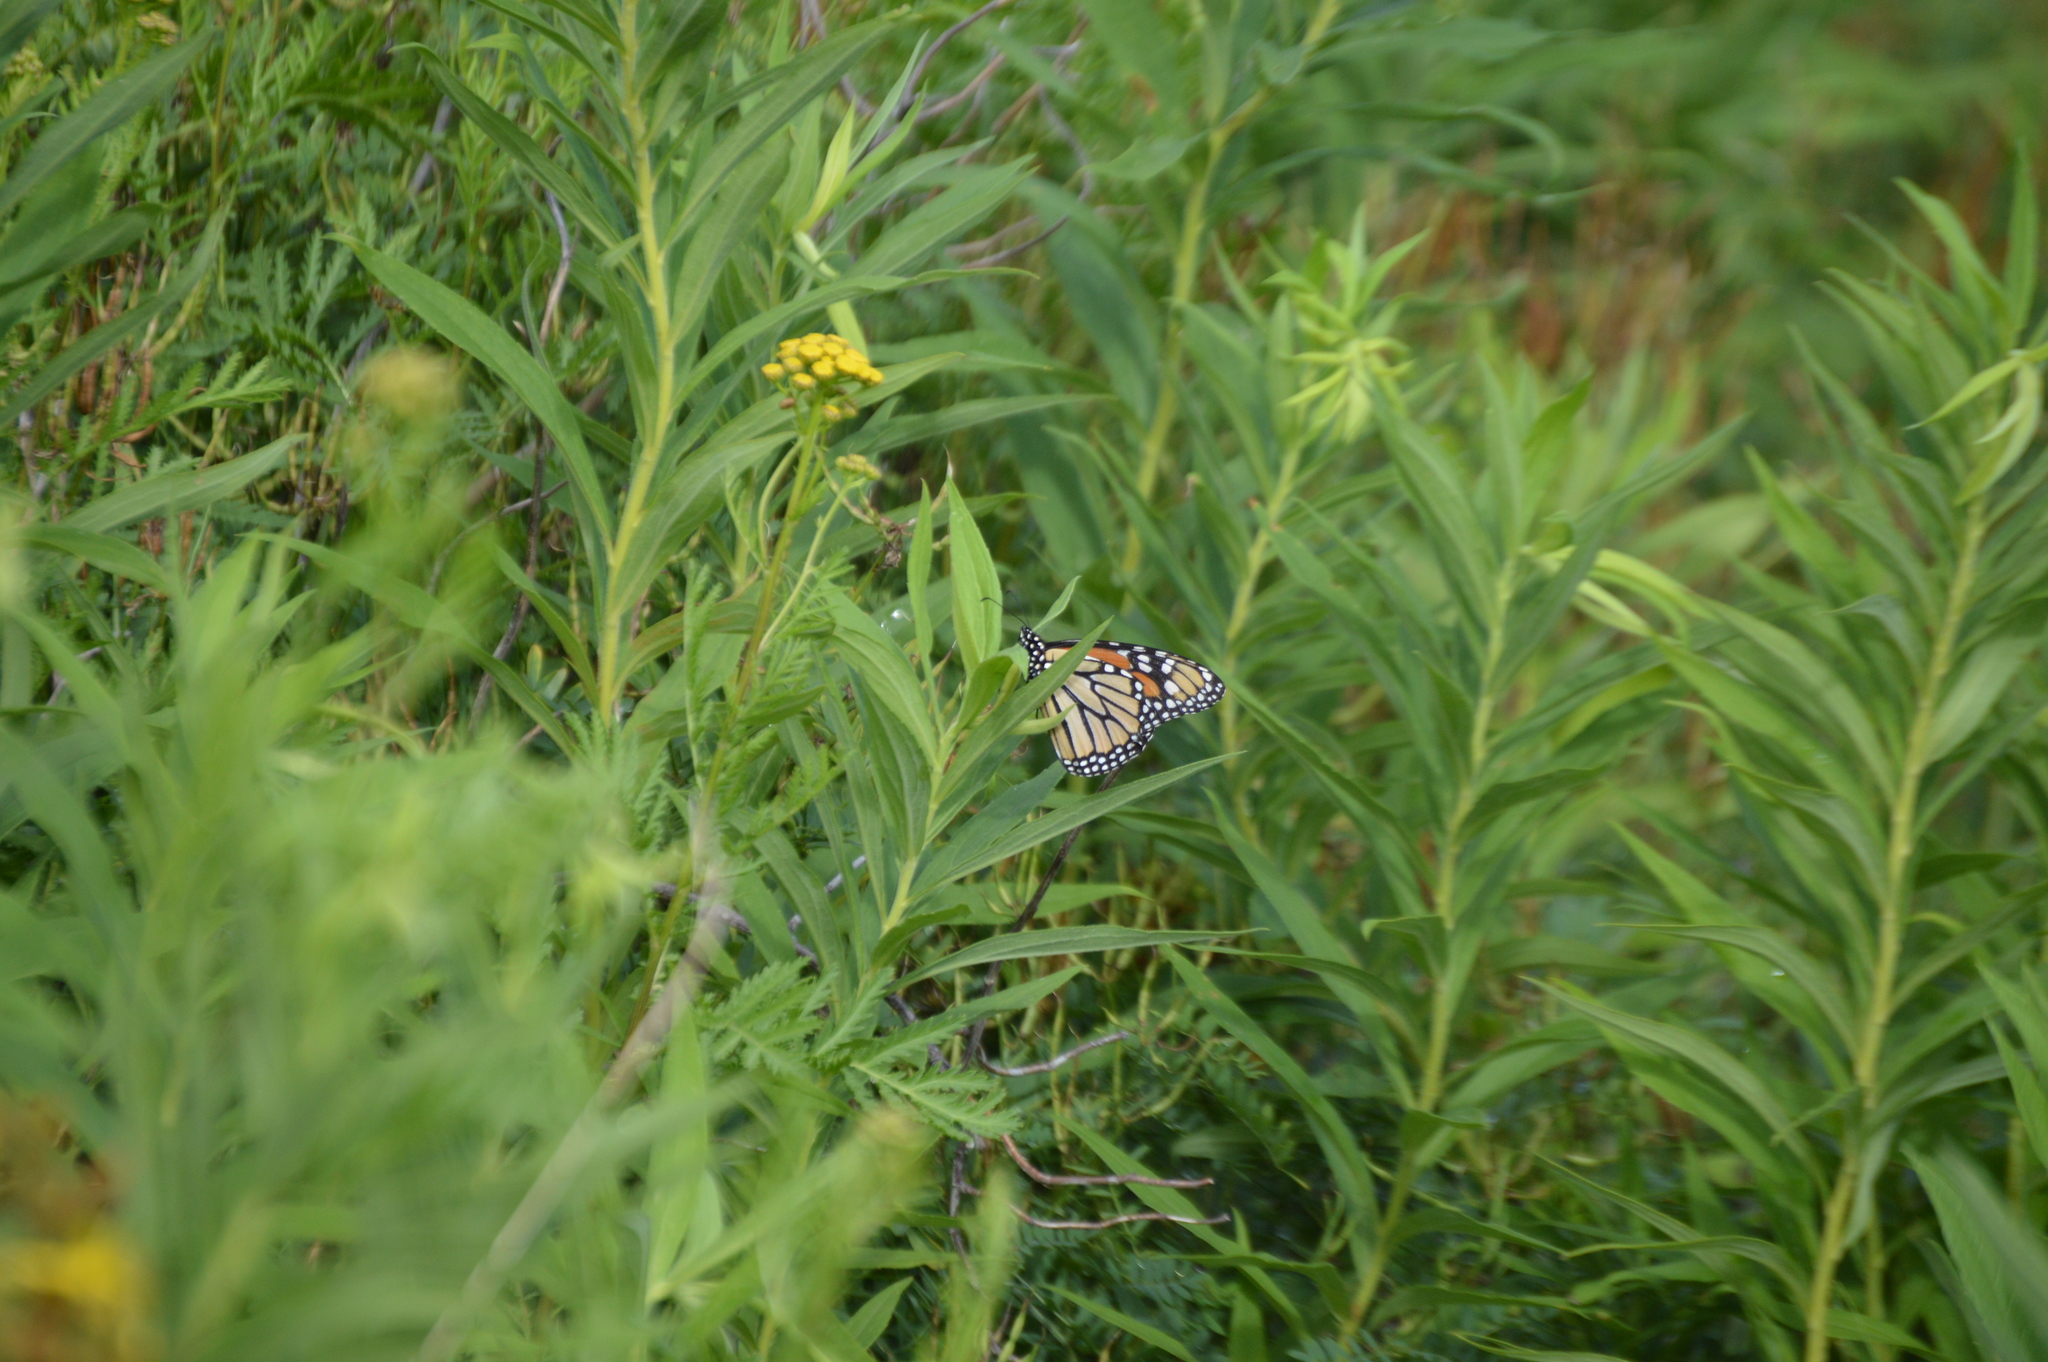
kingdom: Animalia
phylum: Arthropoda
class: Insecta
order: Lepidoptera
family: Nymphalidae
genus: Danaus
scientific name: Danaus plexippus
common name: Monarch
